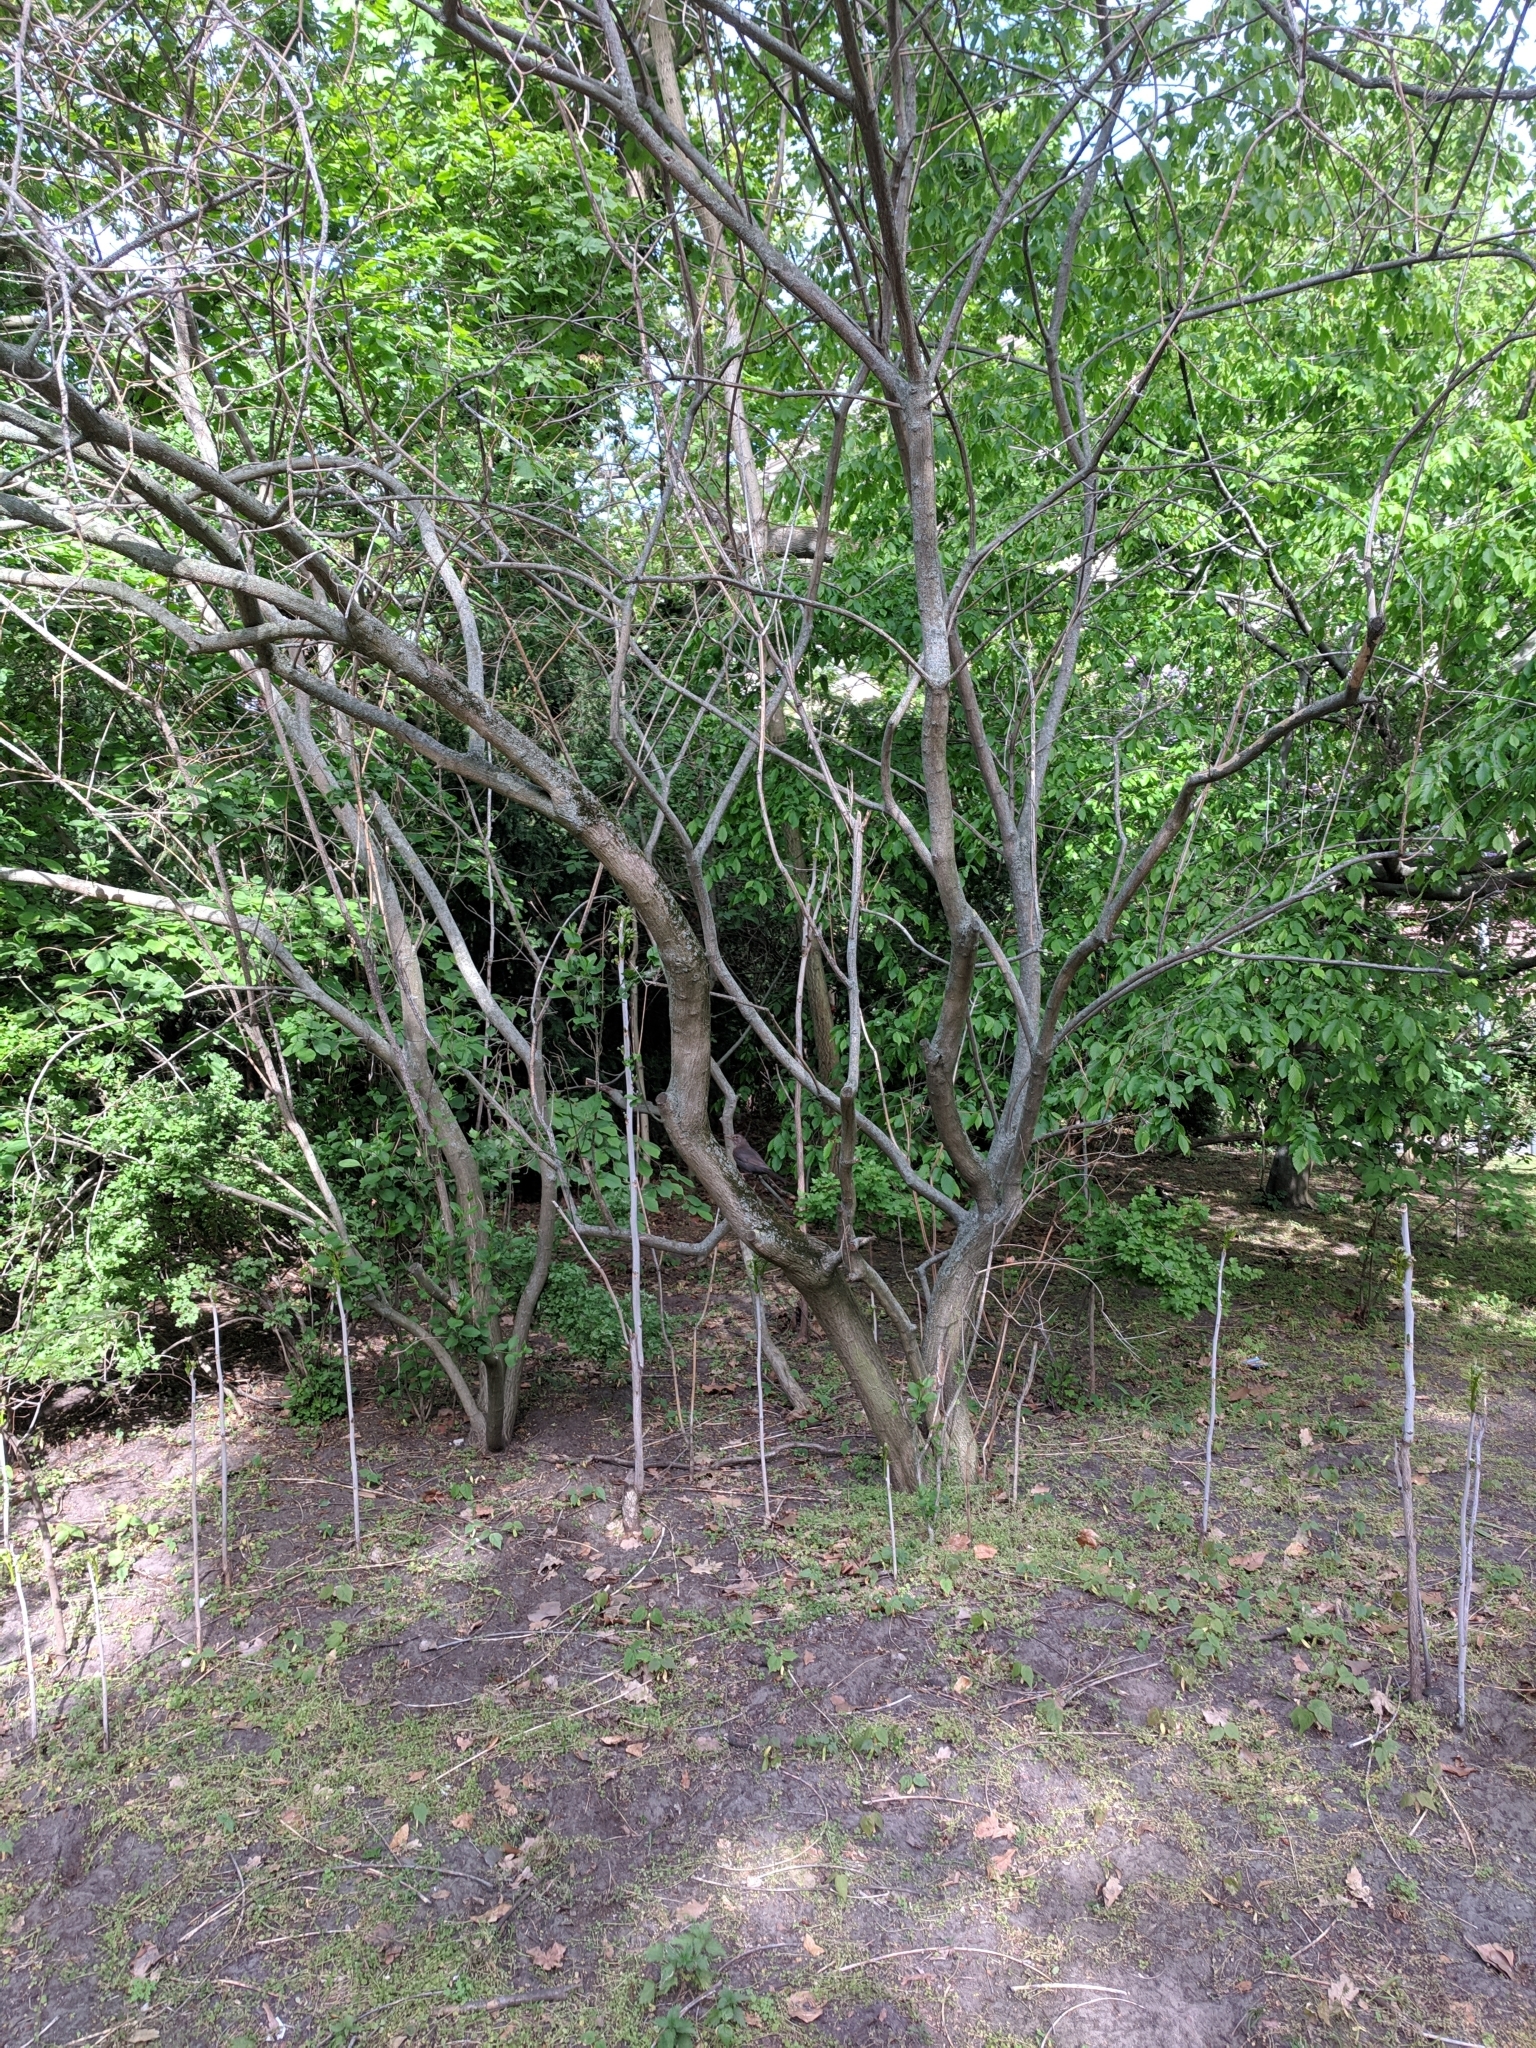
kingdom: Animalia
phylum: Chordata
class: Aves
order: Passeriformes
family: Turdidae
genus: Turdus
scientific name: Turdus merula
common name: Common blackbird
